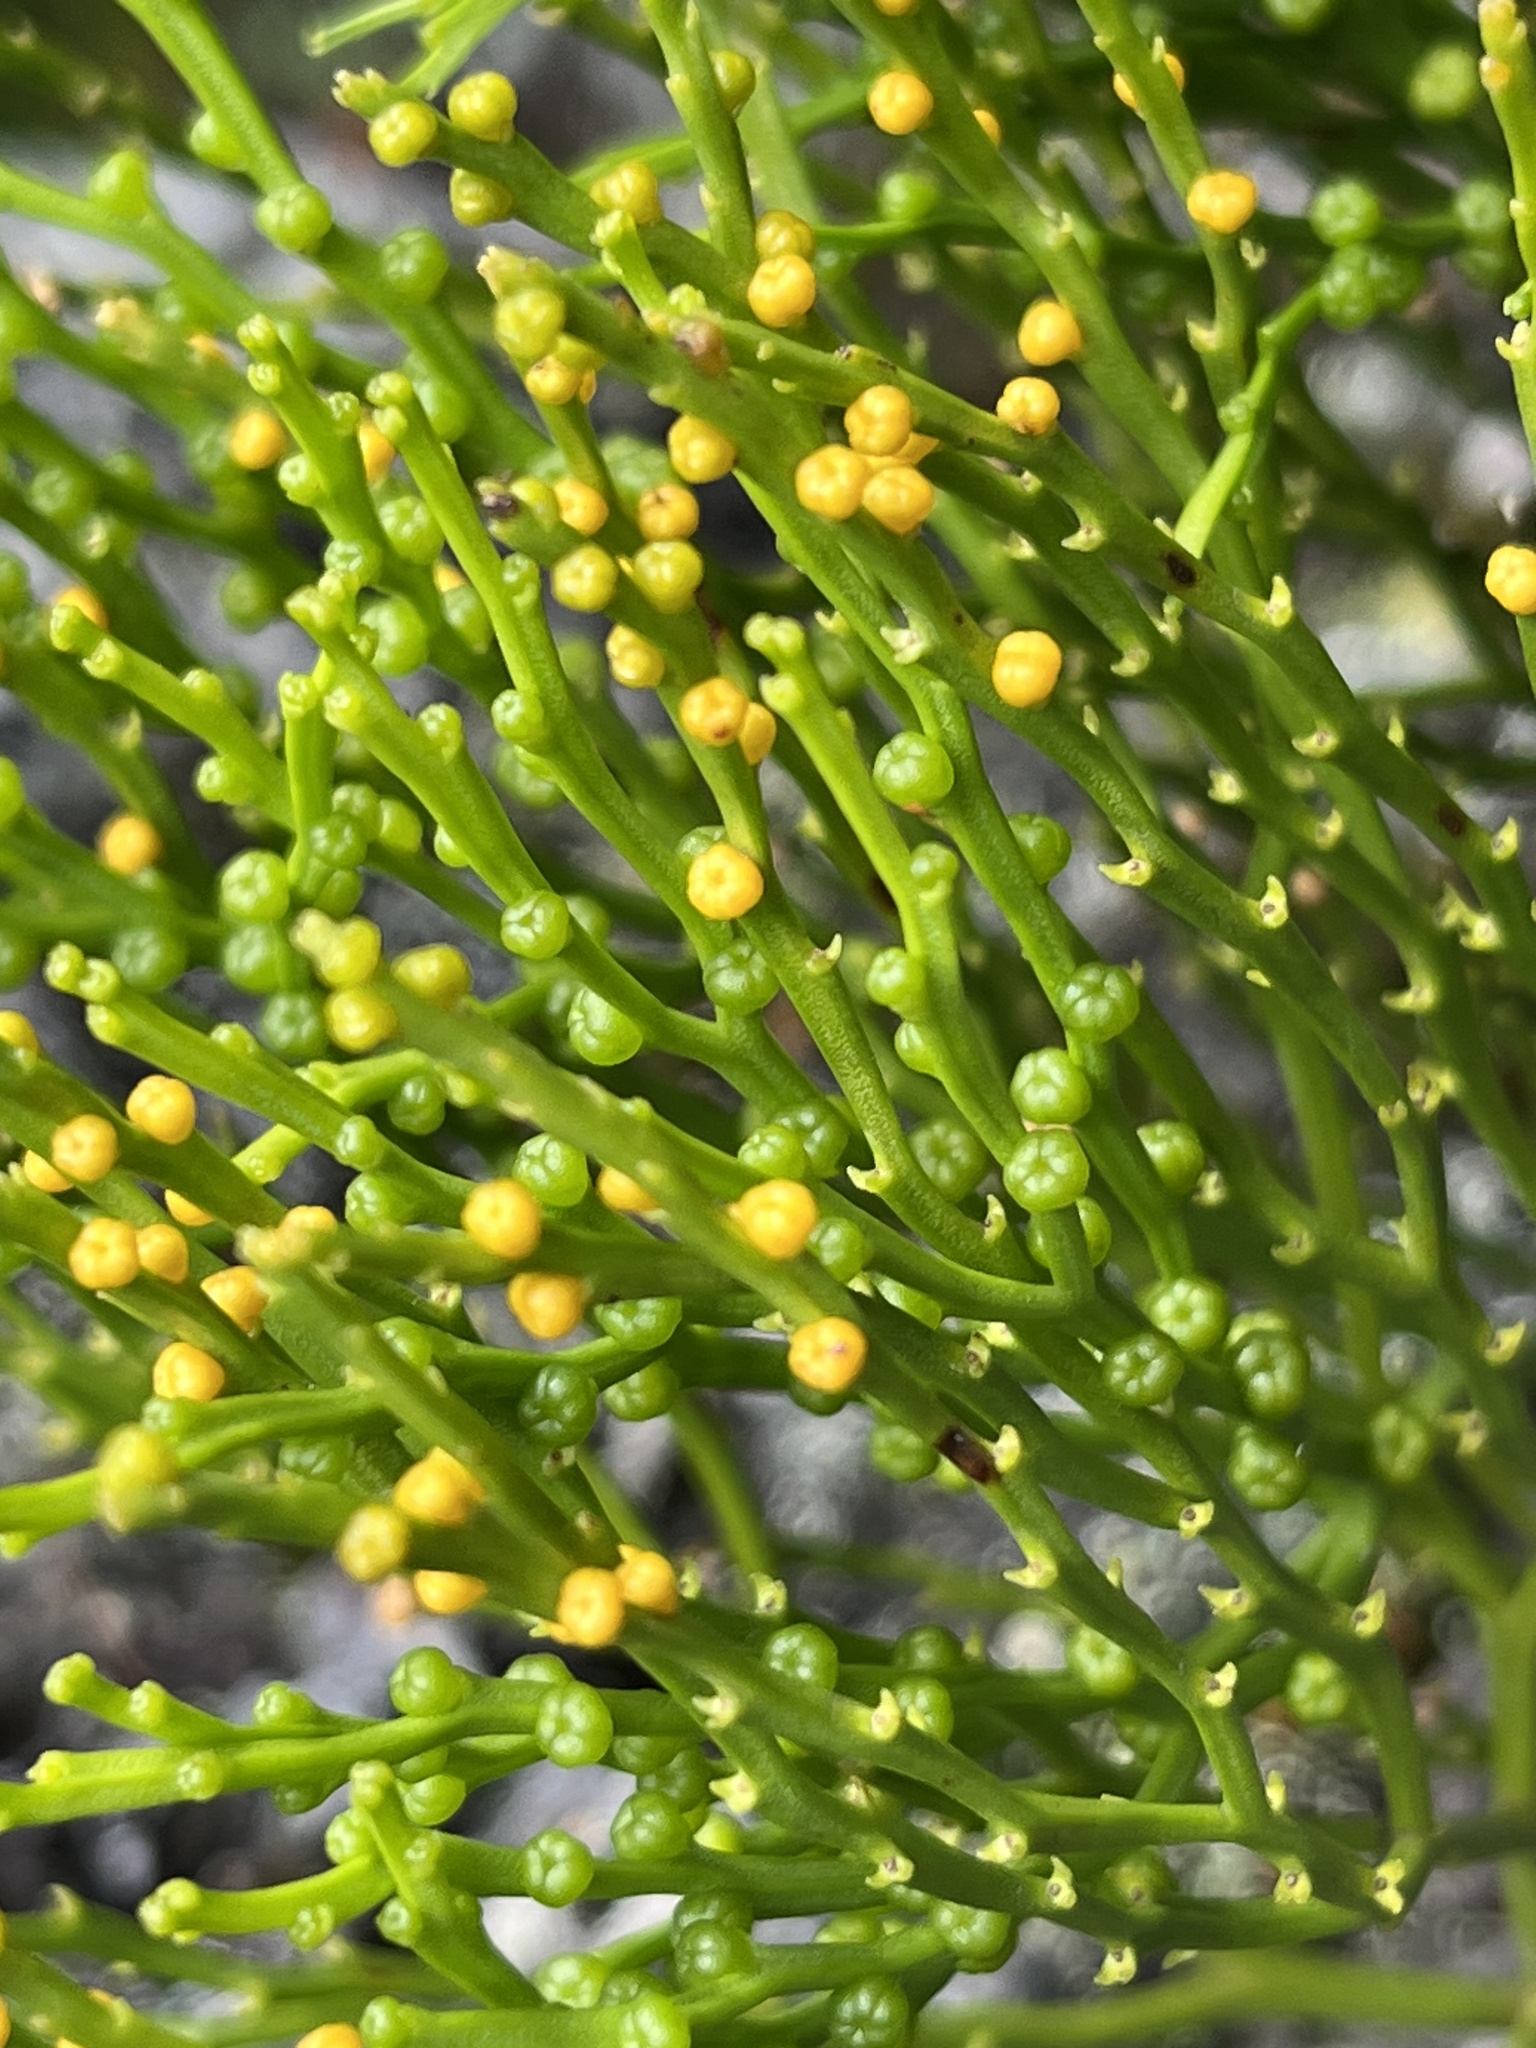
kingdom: Plantae
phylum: Tracheophyta
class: Polypodiopsida
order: Psilotales
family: Psilotaceae
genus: Psilotum
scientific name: Psilotum nudum
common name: Skeleton fork fern
